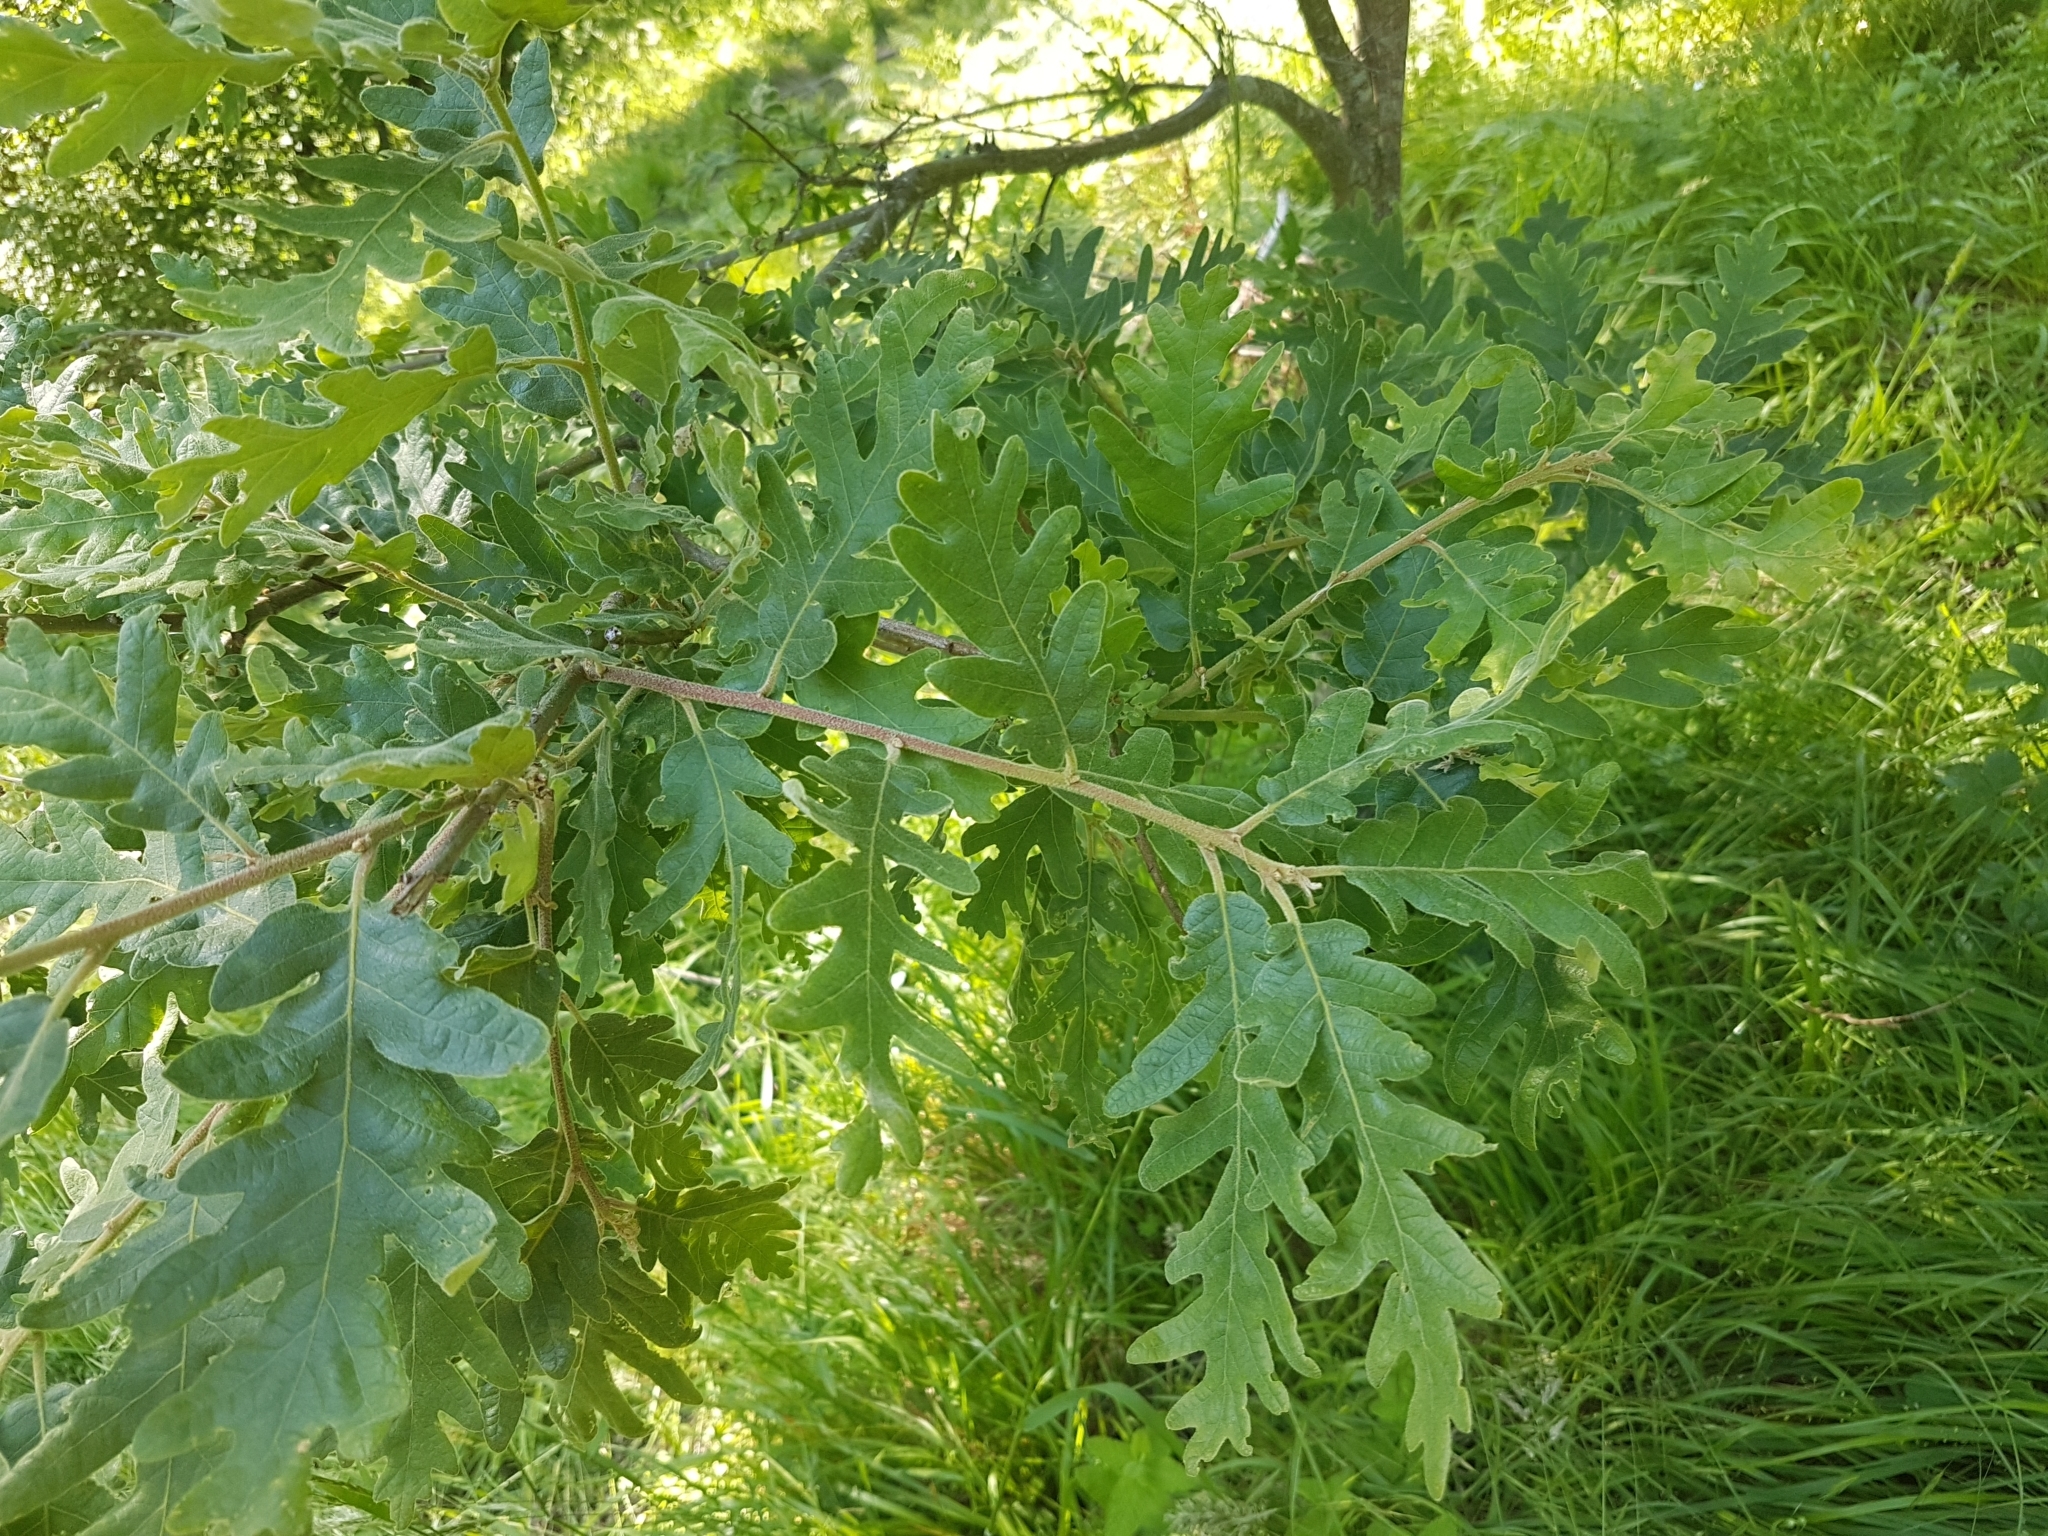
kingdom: Plantae
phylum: Tracheophyta
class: Magnoliopsida
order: Fagales
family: Fagaceae
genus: Quercus
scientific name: Quercus pyrenaica
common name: Pyrenean oak
